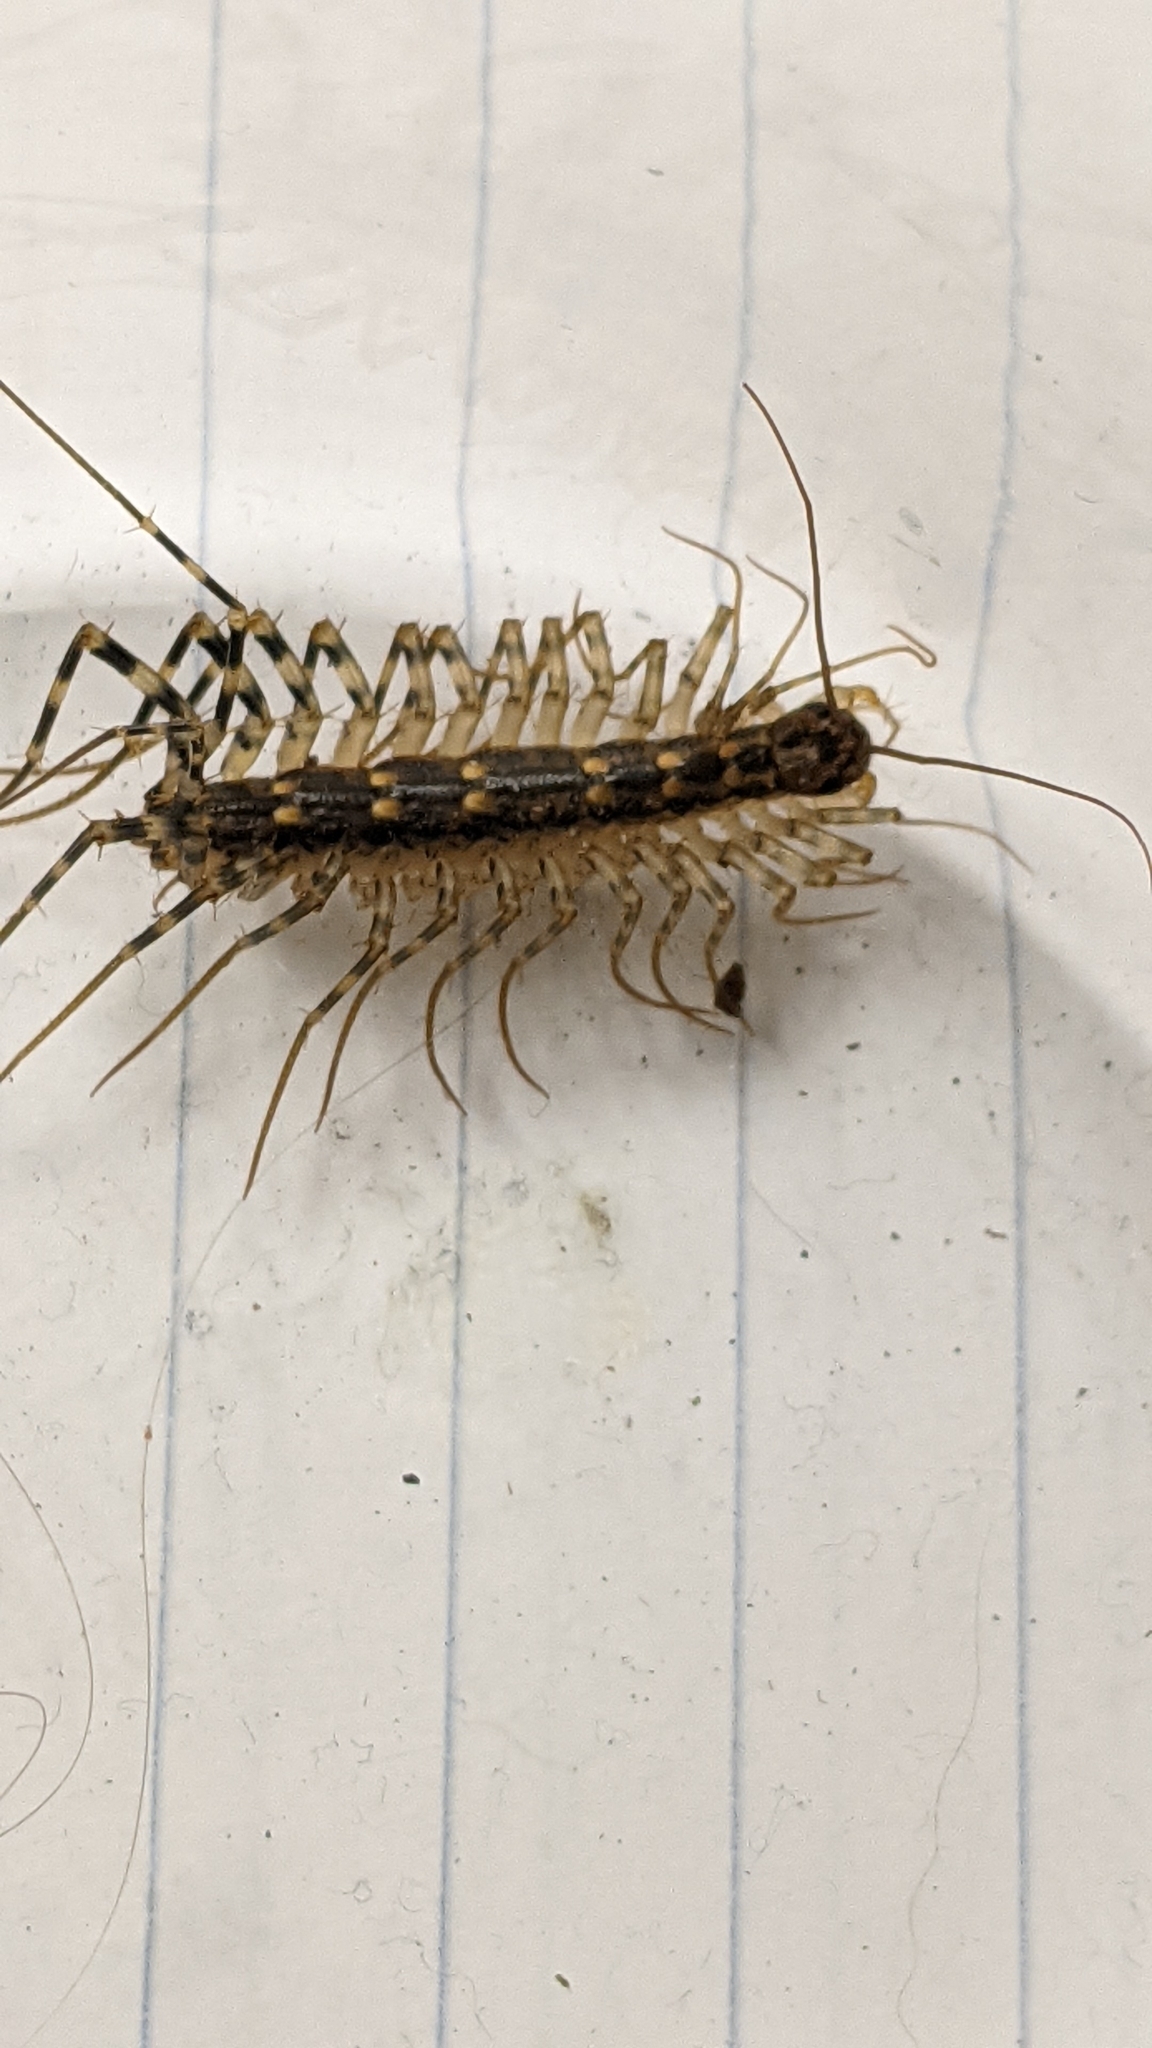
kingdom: Animalia
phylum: Arthropoda
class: Chilopoda
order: Scutigeromorpha
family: Scutigeridae
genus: Scutigera
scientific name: Scutigera coleoptrata
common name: House centipede
